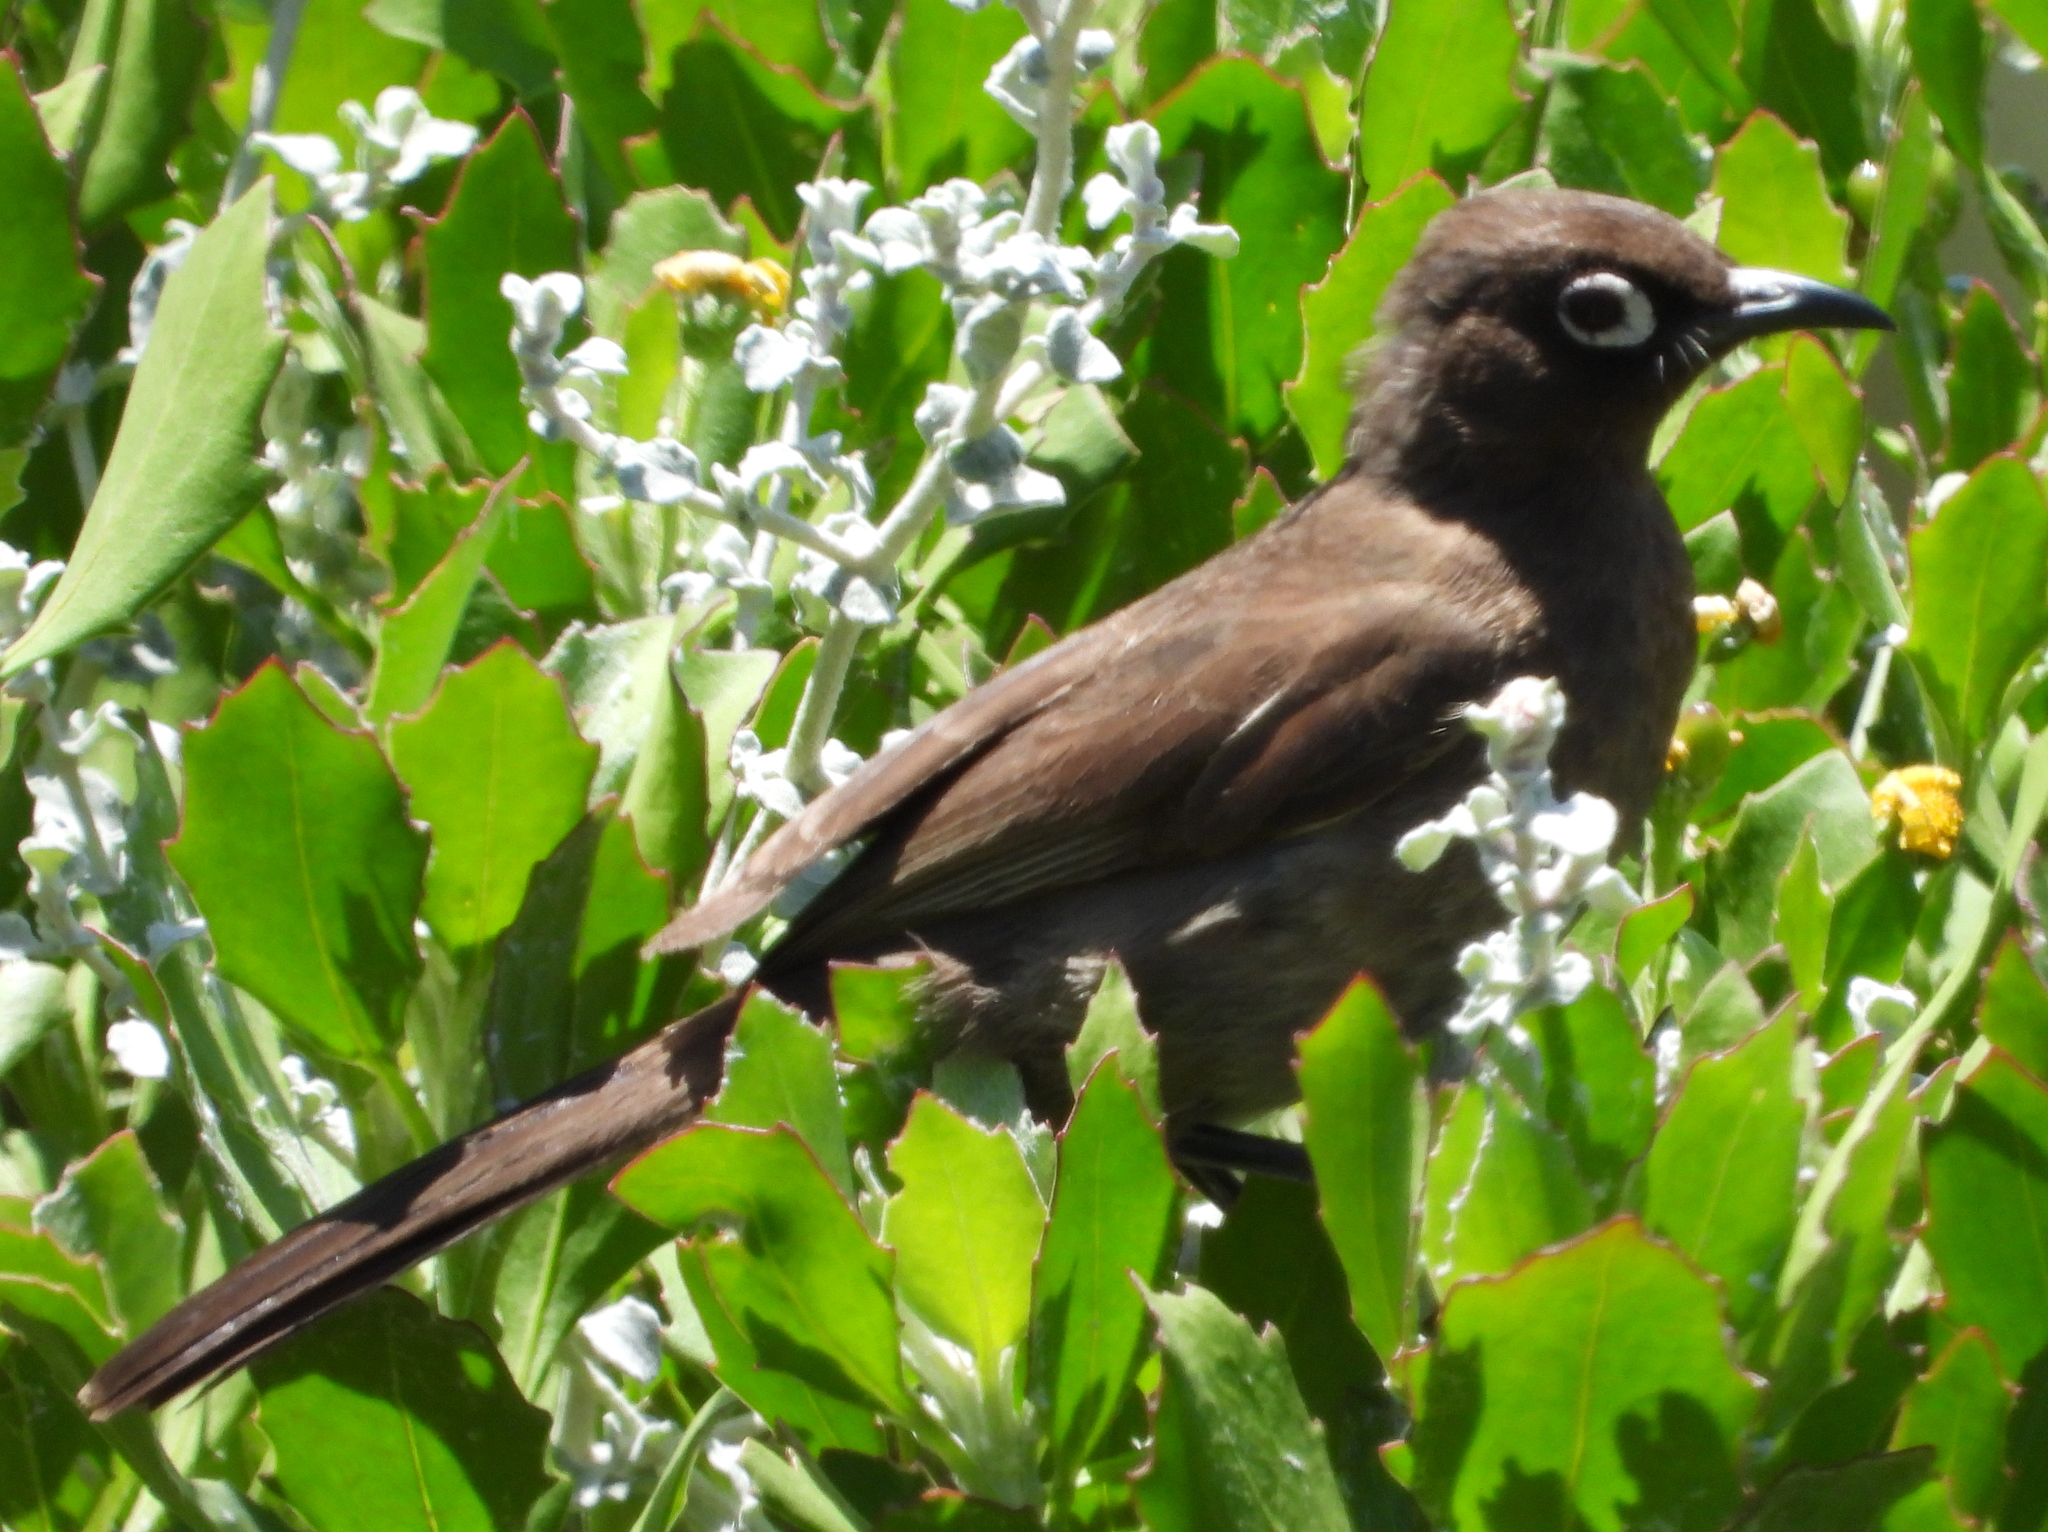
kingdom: Animalia
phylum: Chordata
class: Aves
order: Passeriformes
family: Pycnonotidae
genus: Pycnonotus
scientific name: Pycnonotus capensis
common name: Cape bulbul
